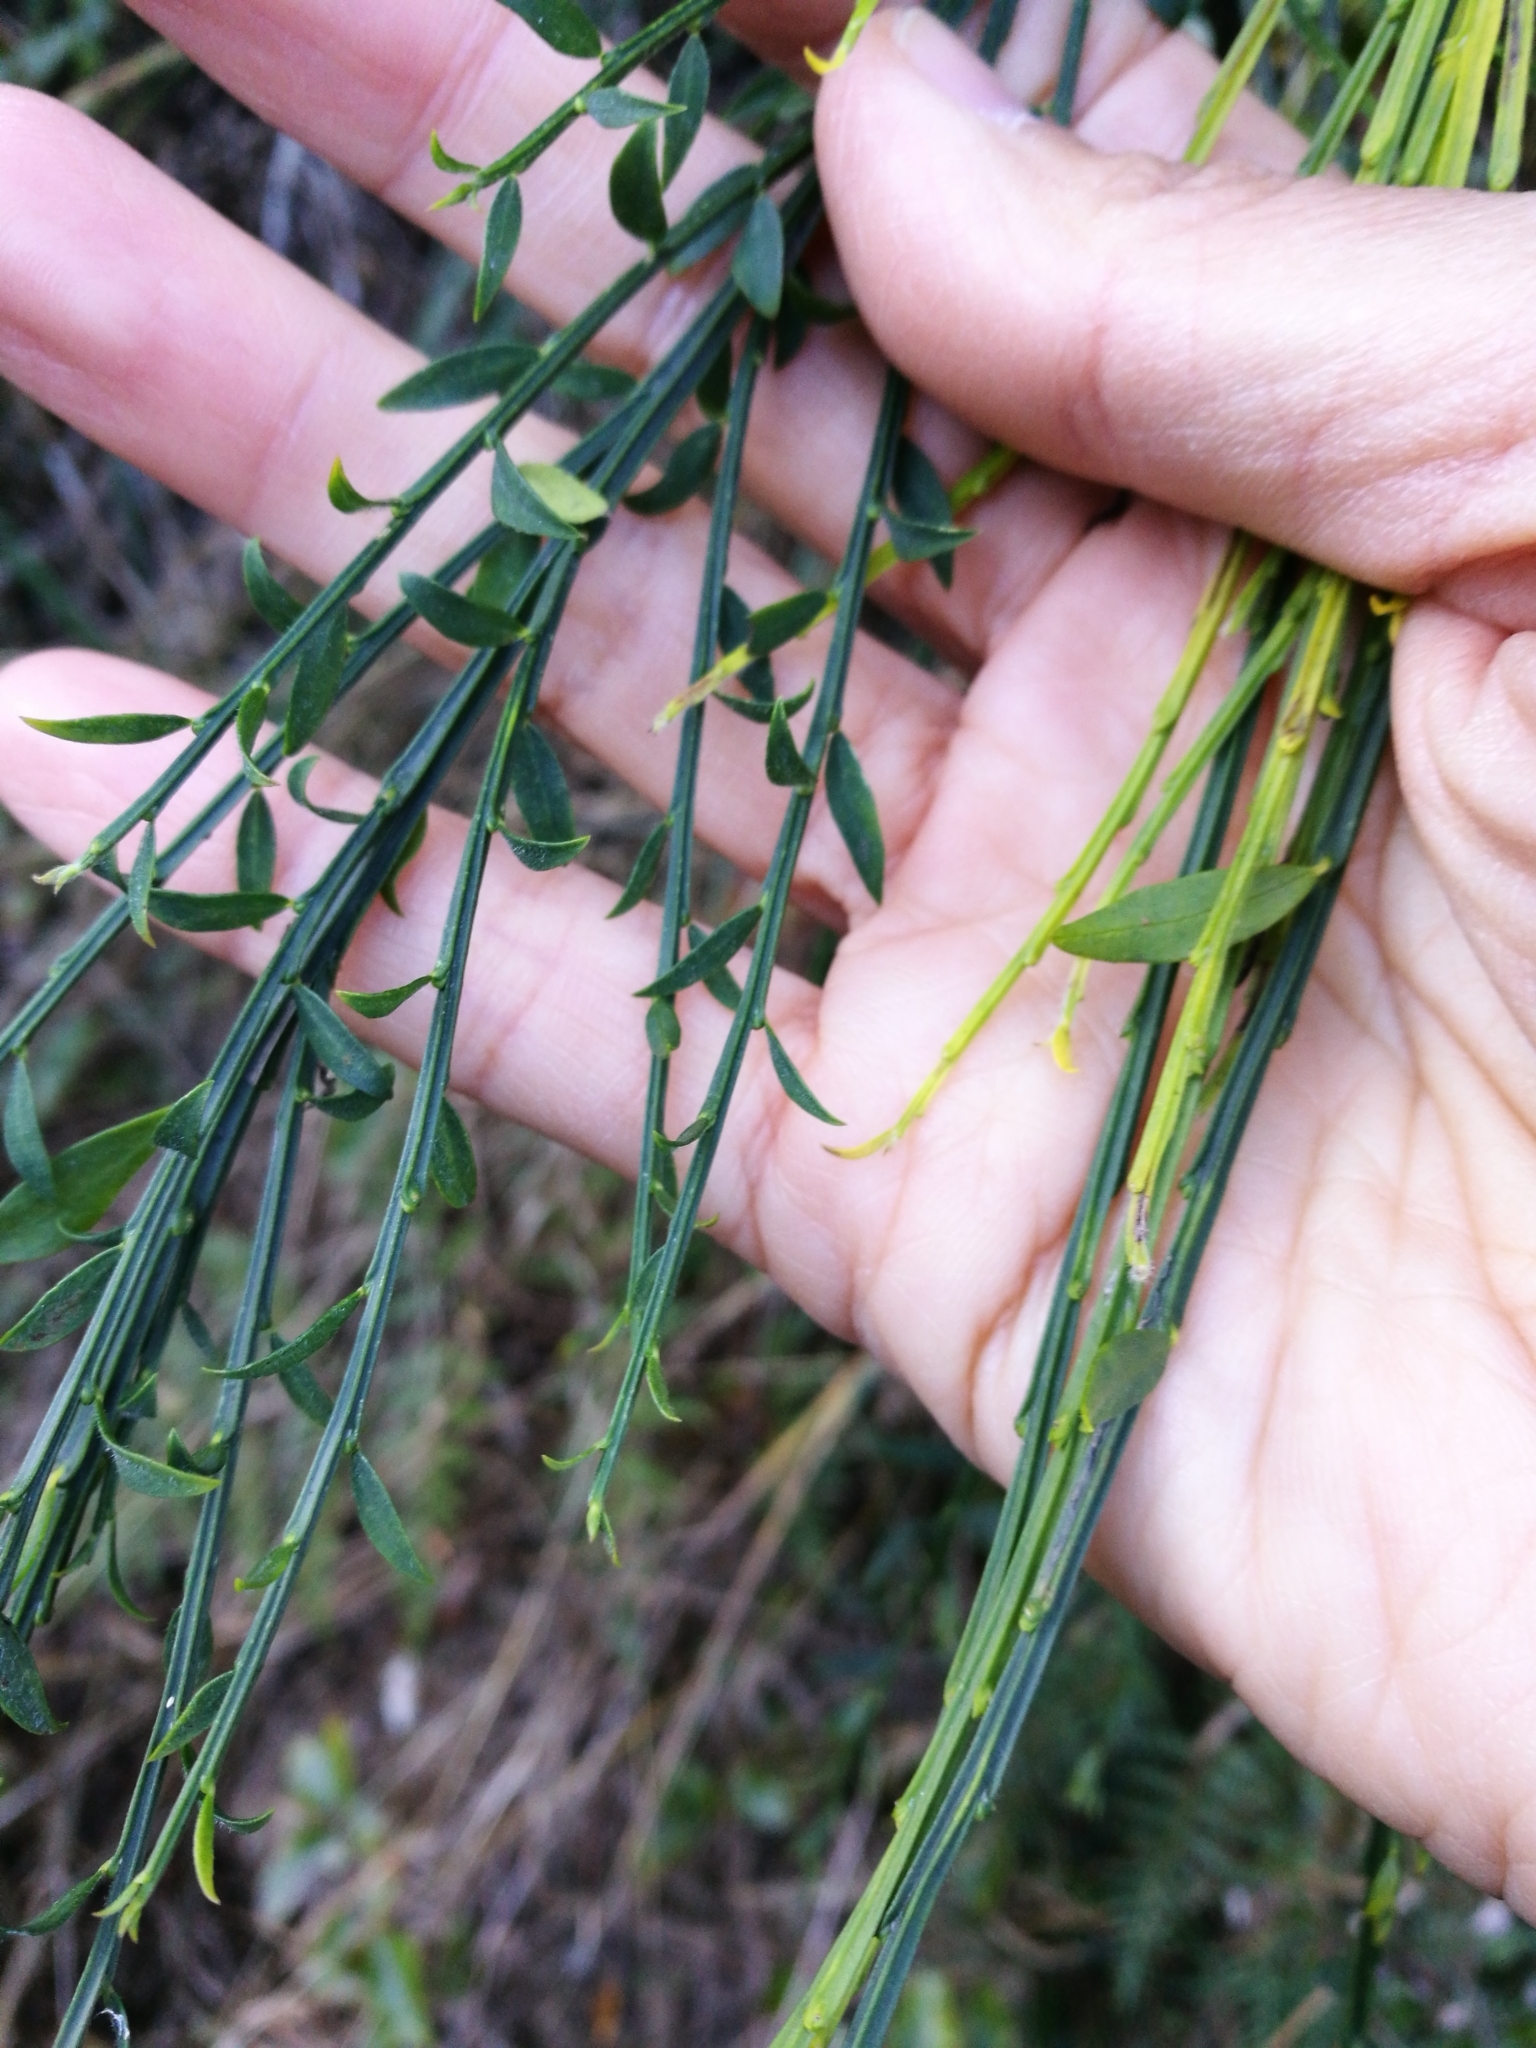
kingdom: Plantae
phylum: Tracheophyta
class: Magnoliopsida
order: Fabales
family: Fabaceae
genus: Cytisus
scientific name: Cytisus scoparius
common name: Scotch broom
